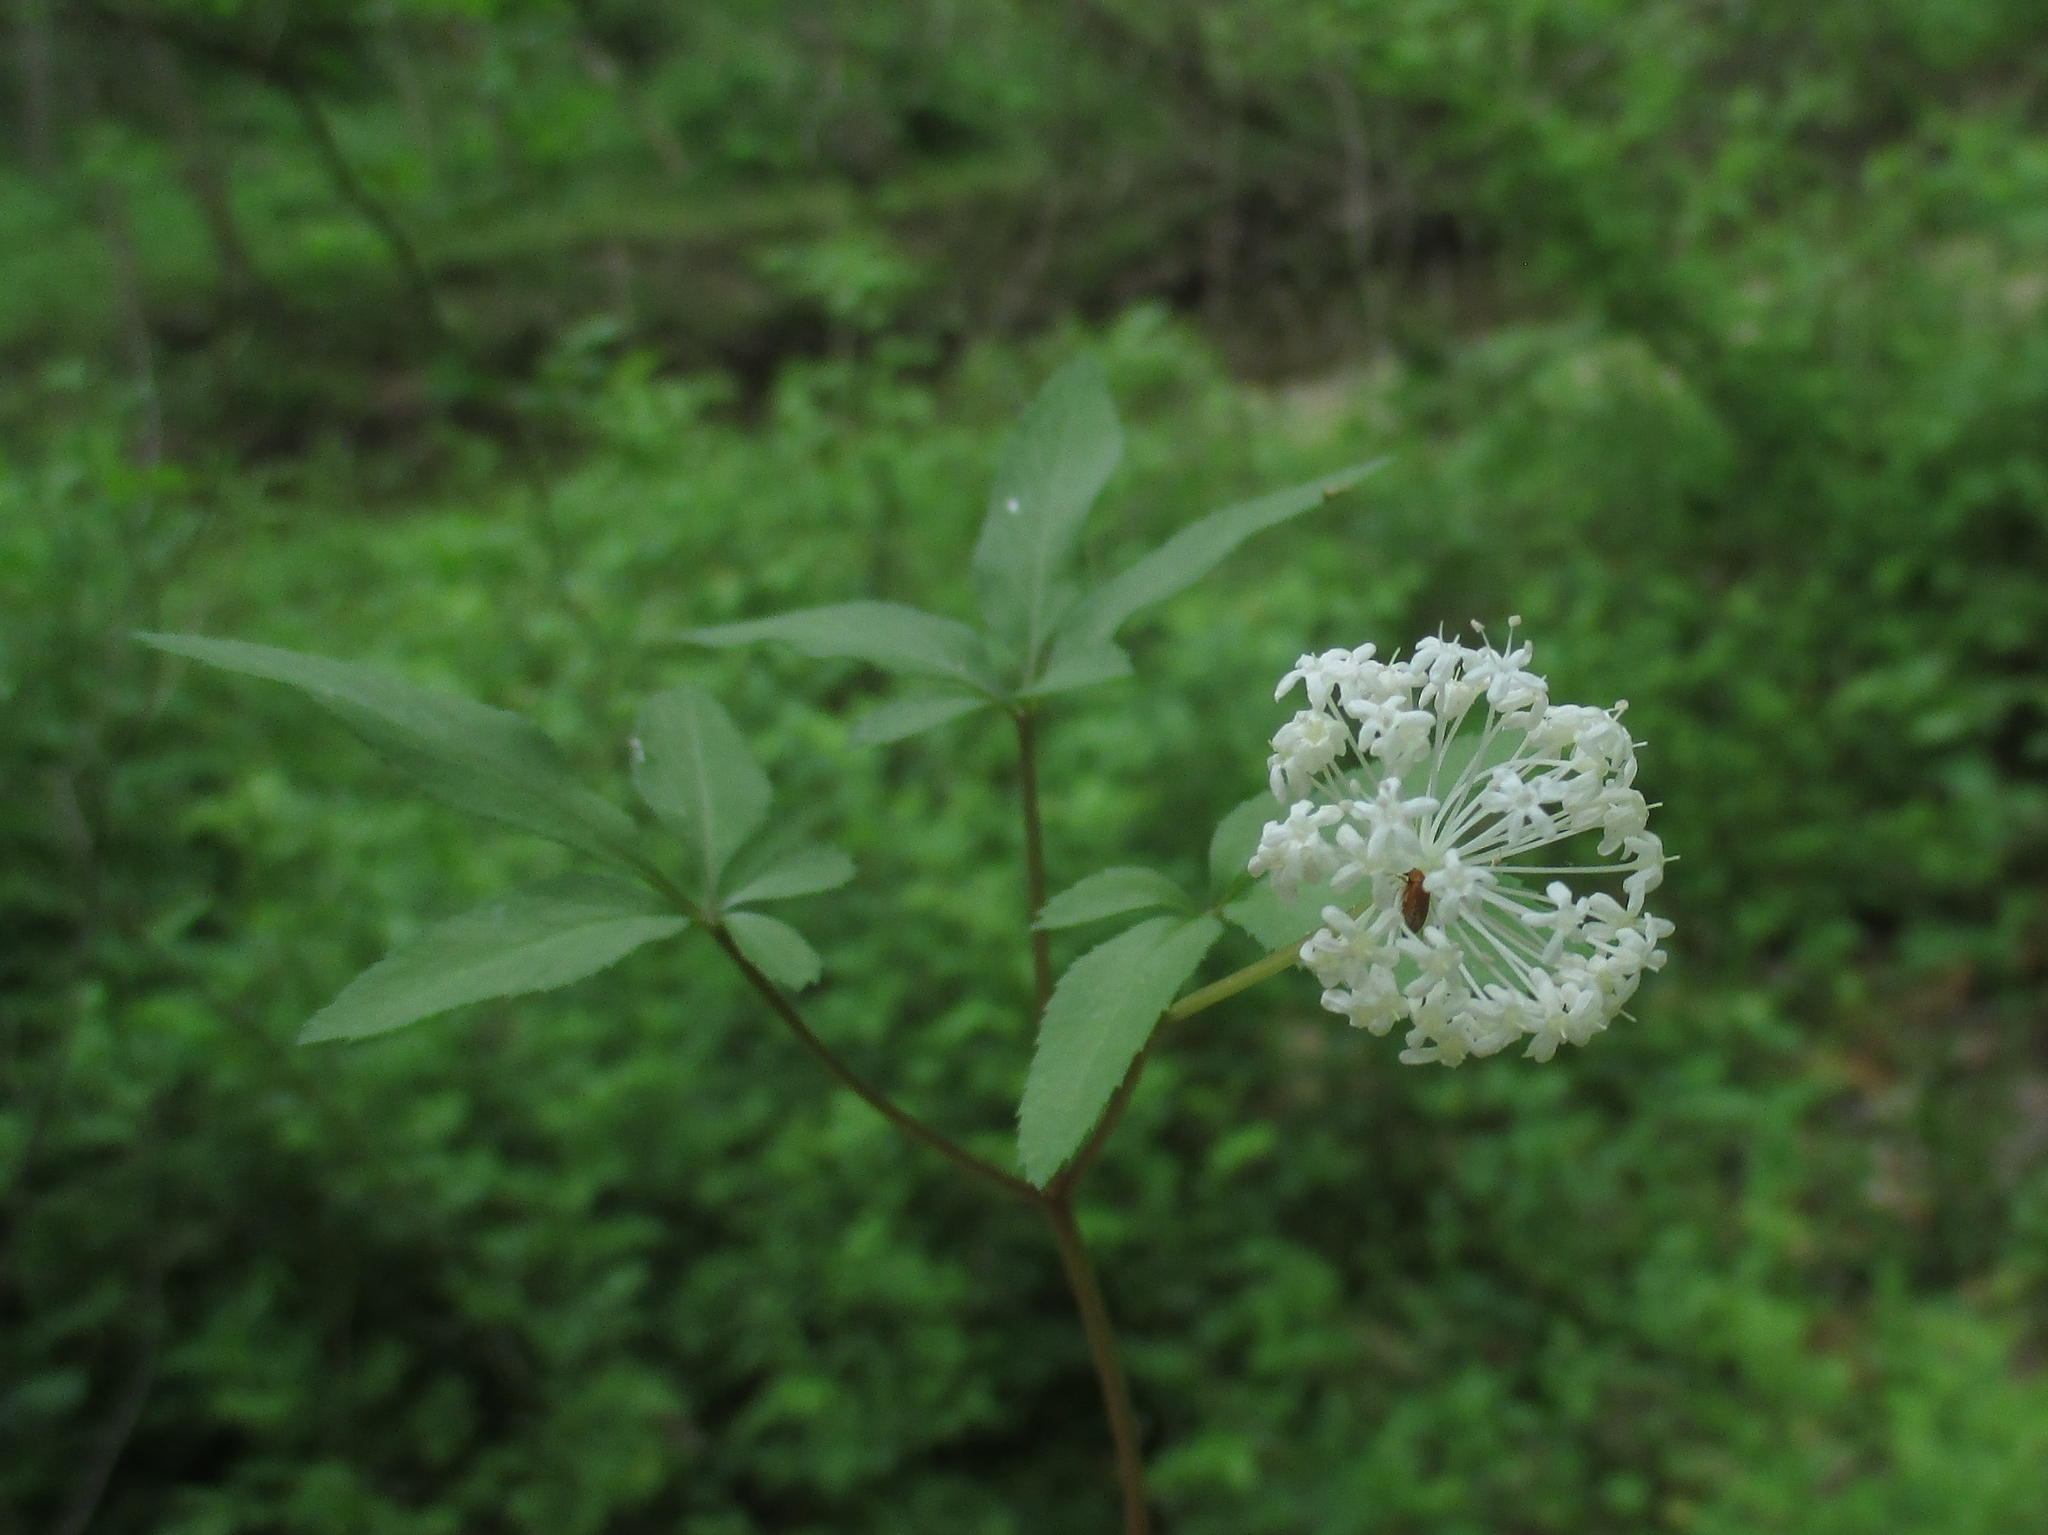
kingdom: Plantae
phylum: Tracheophyta
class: Magnoliopsida
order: Apiales
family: Araliaceae
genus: Panax
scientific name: Panax trifolius
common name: Dwarf ginseng
